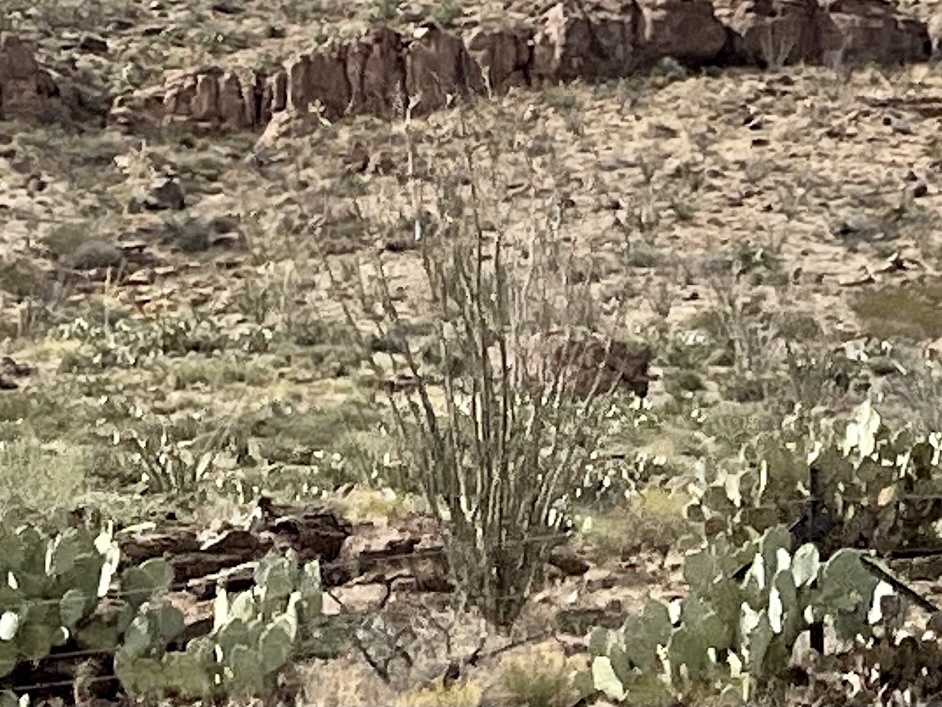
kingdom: Plantae
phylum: Tracheophyta
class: Magnoliopsida
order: Ericales
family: Fouquieriaceae
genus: Fouquieria
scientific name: Fouquieria splendens
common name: Vine-cactus
